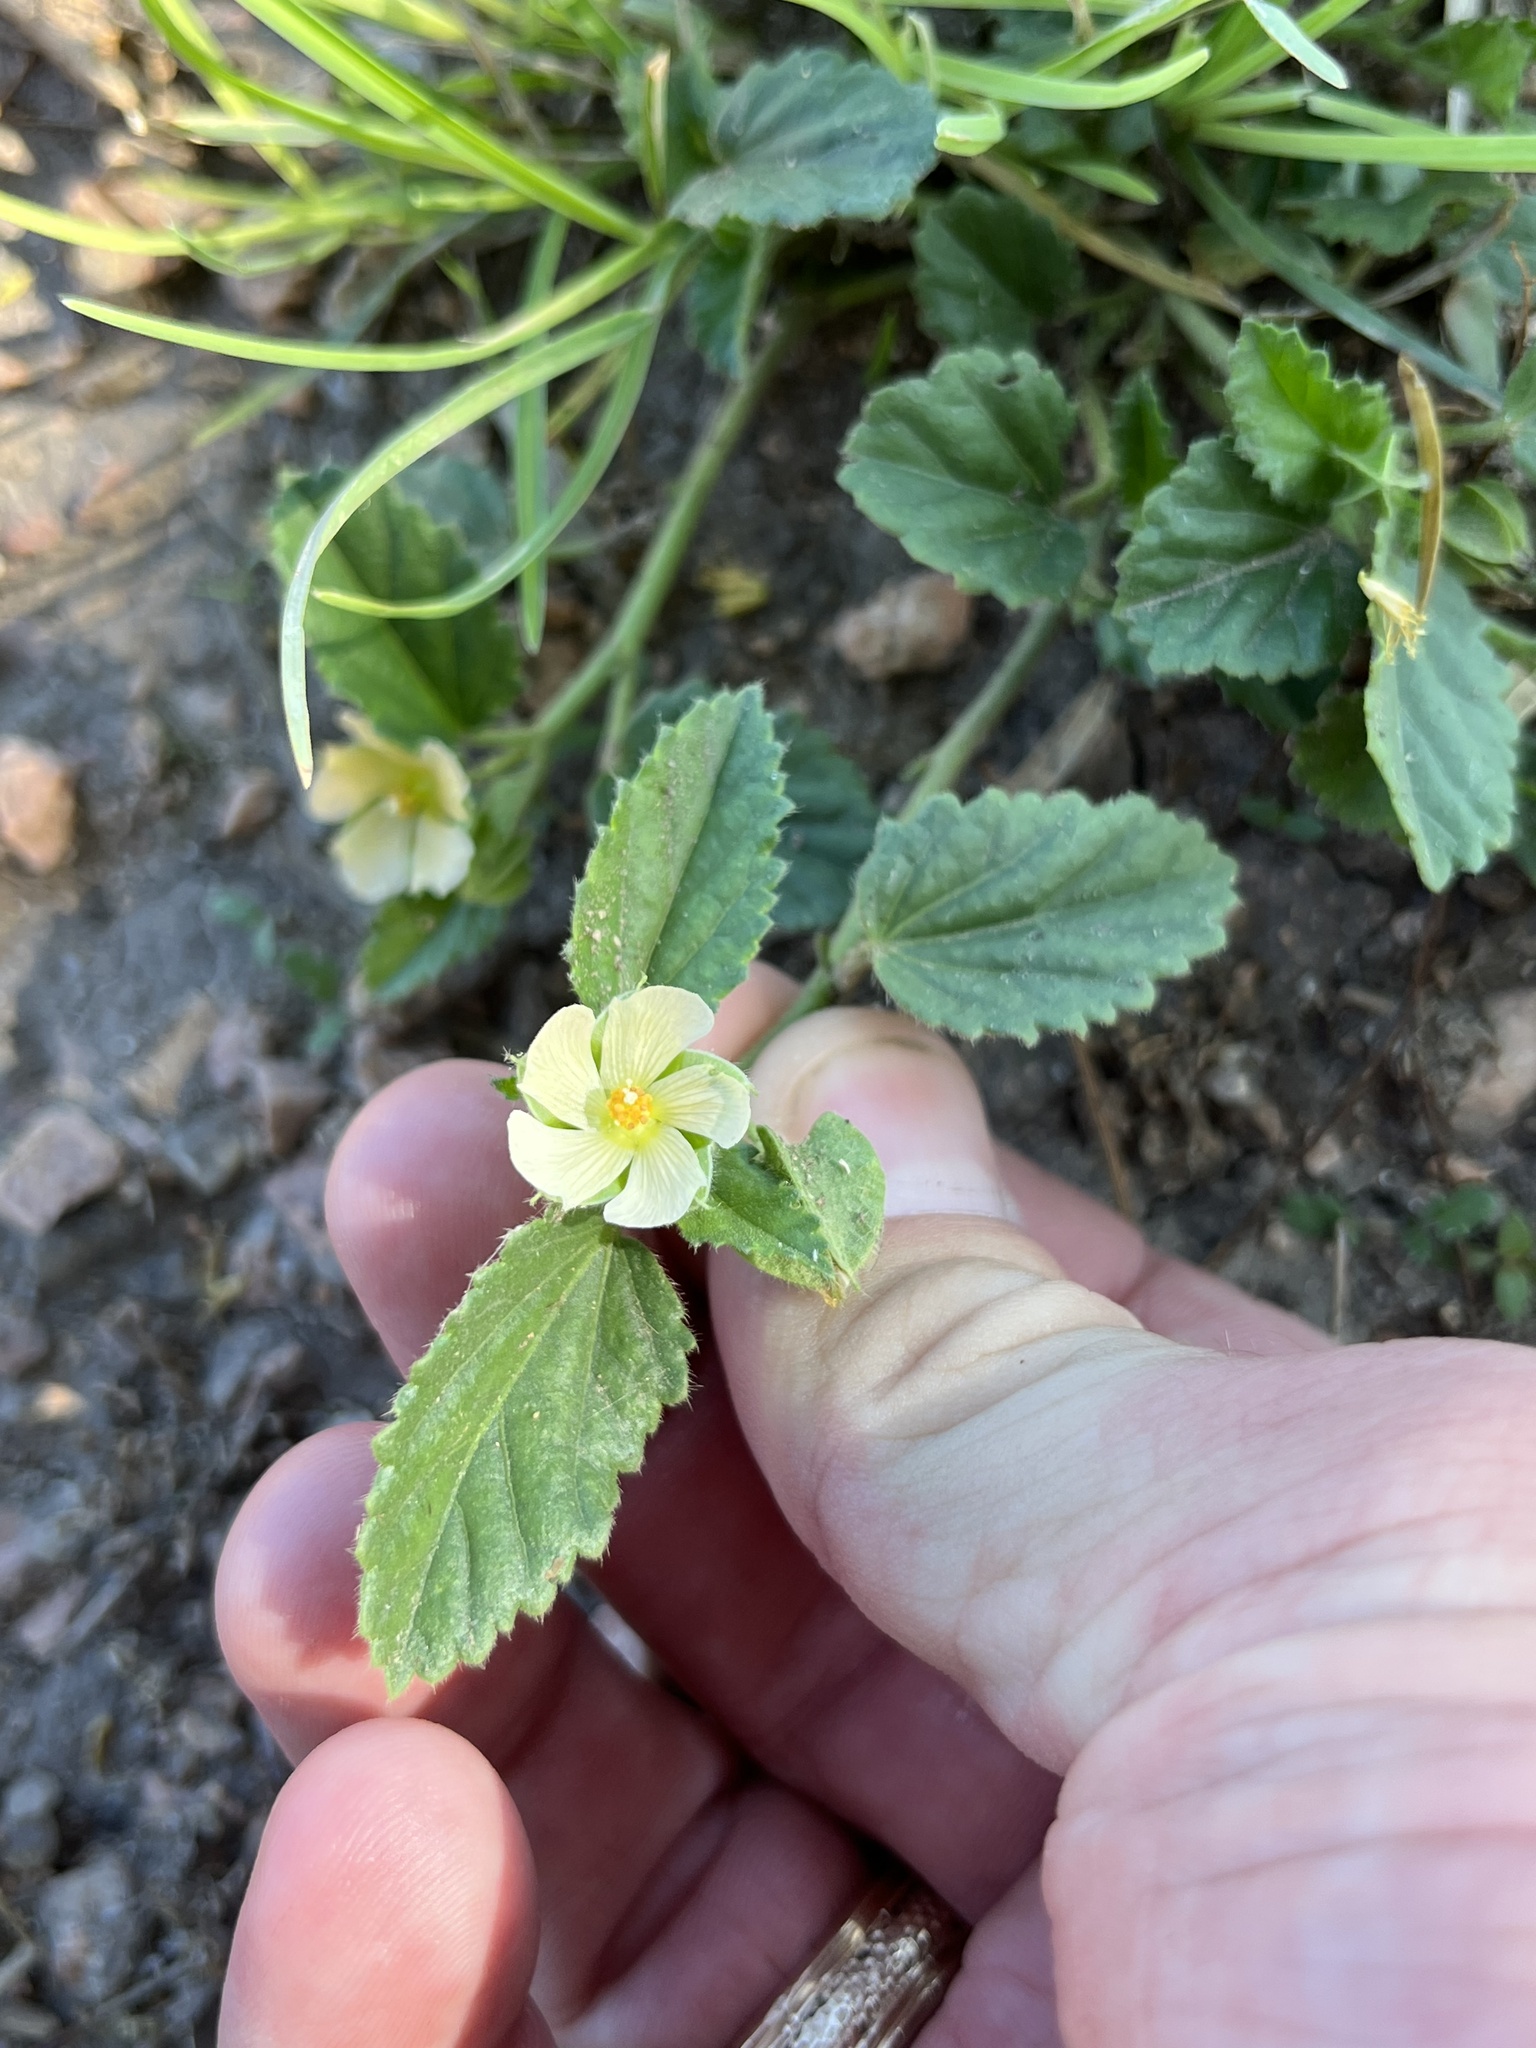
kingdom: Plantae
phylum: Tracheophyta
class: Magnoliopsida
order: Malvales
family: Malvaceae
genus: Rhynchosida
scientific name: Rhynchosida physocalyx
